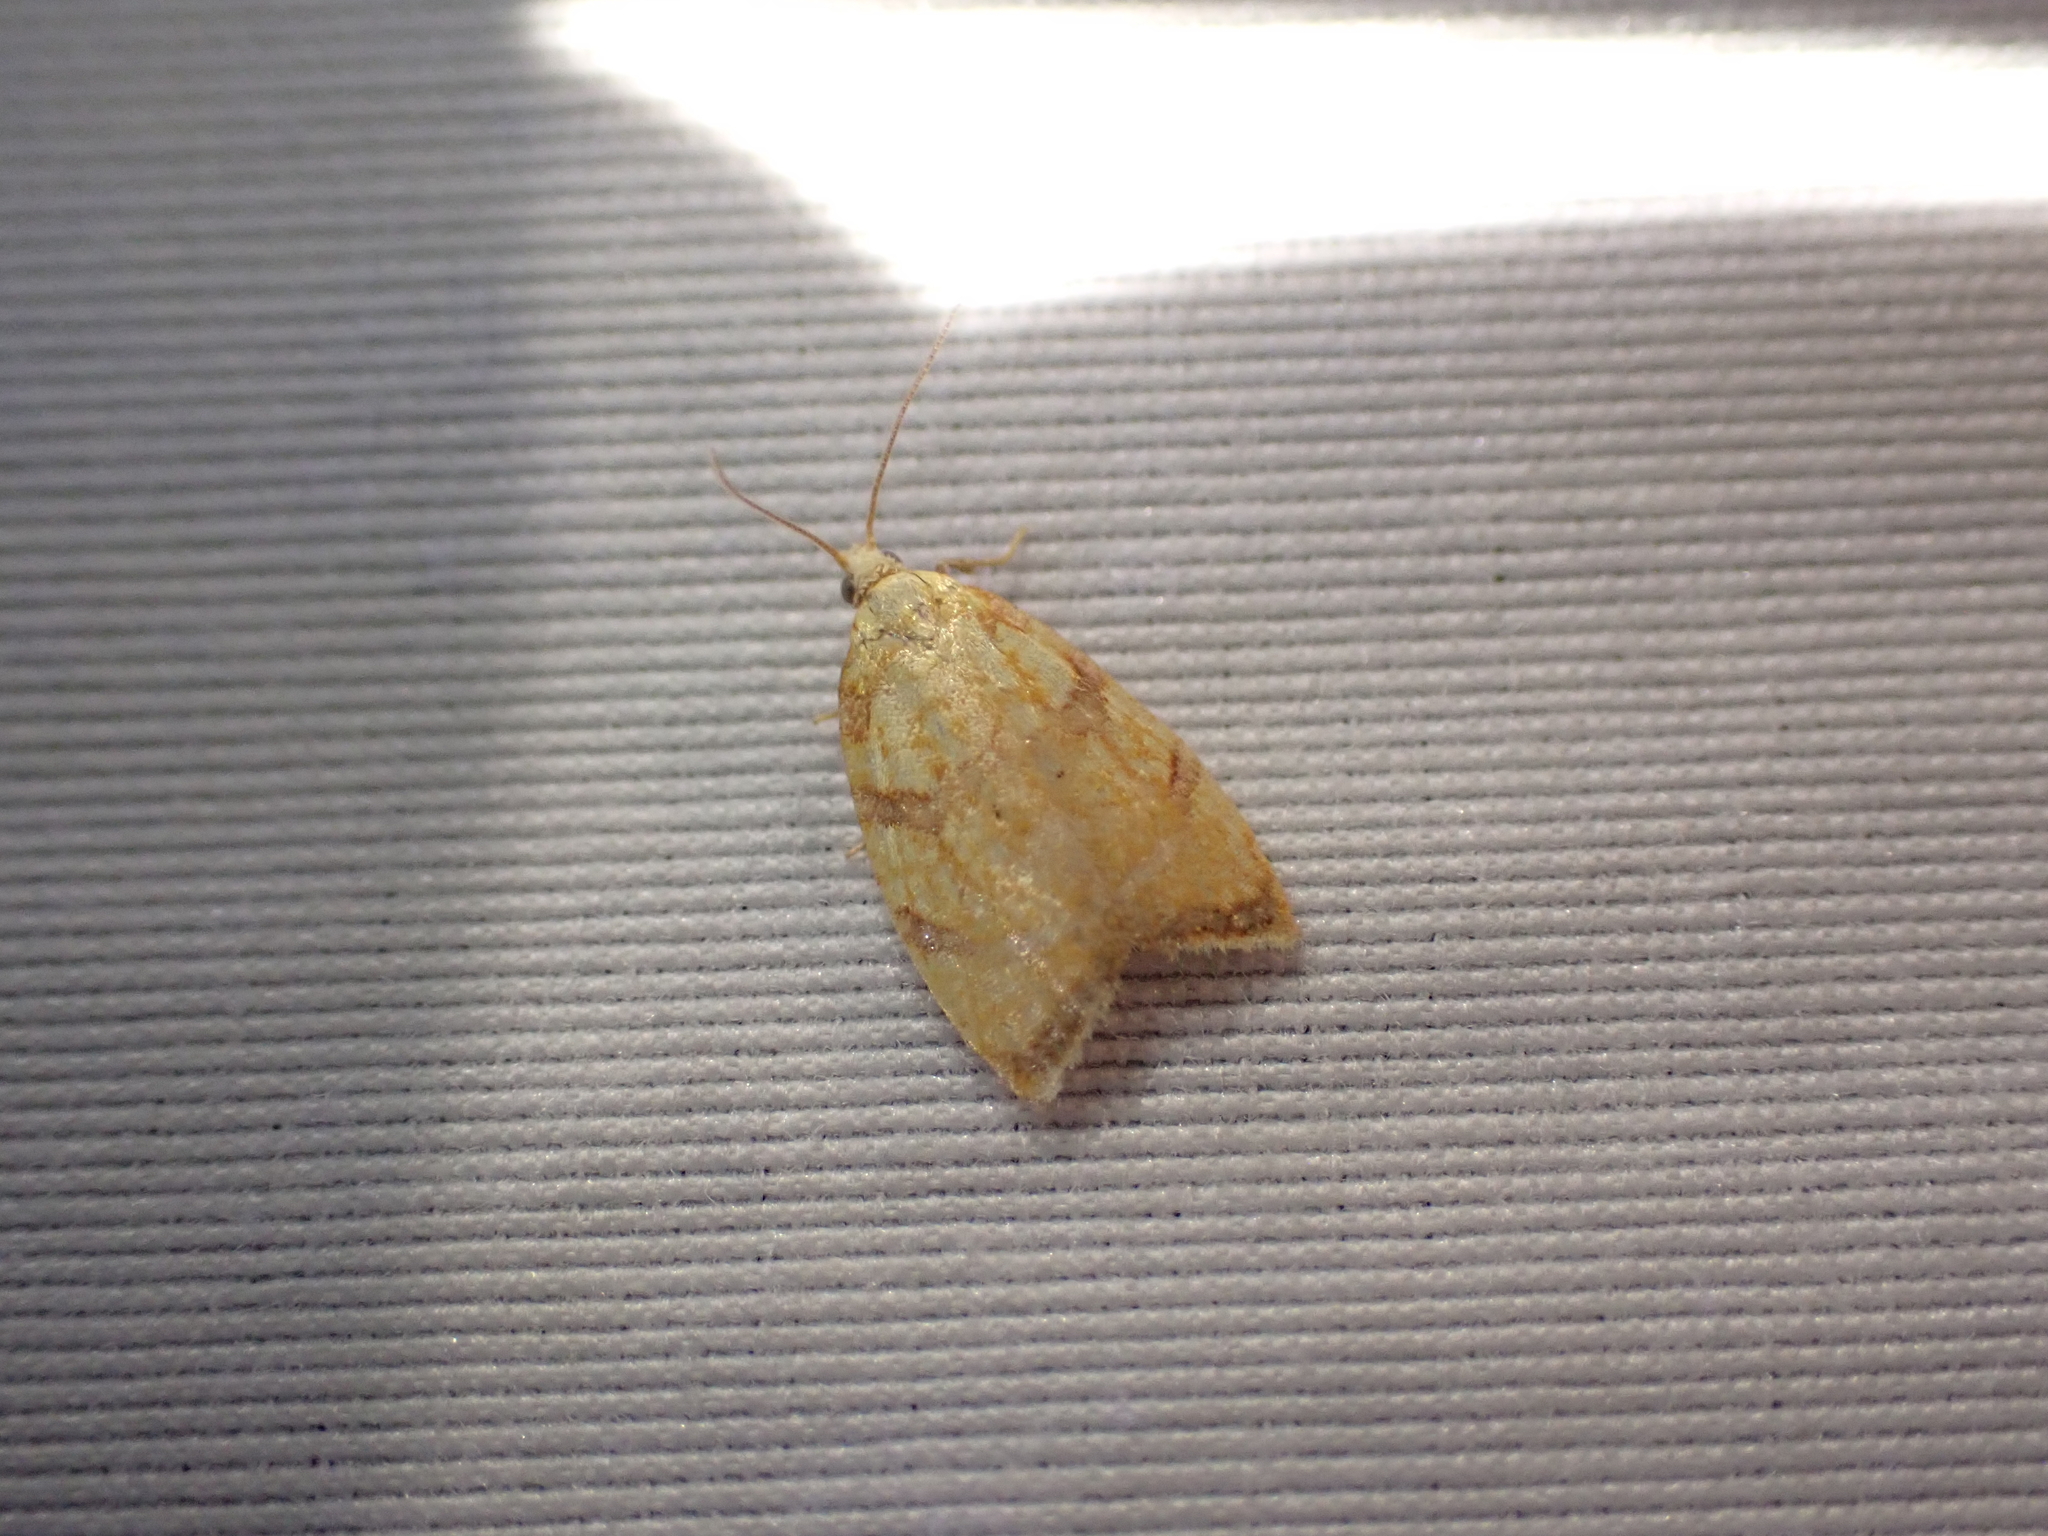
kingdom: Animalia
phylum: Arthropoda
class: Insecta
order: Lepidoptera
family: Tortricidae
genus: Acleris
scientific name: Acleris albicomana
